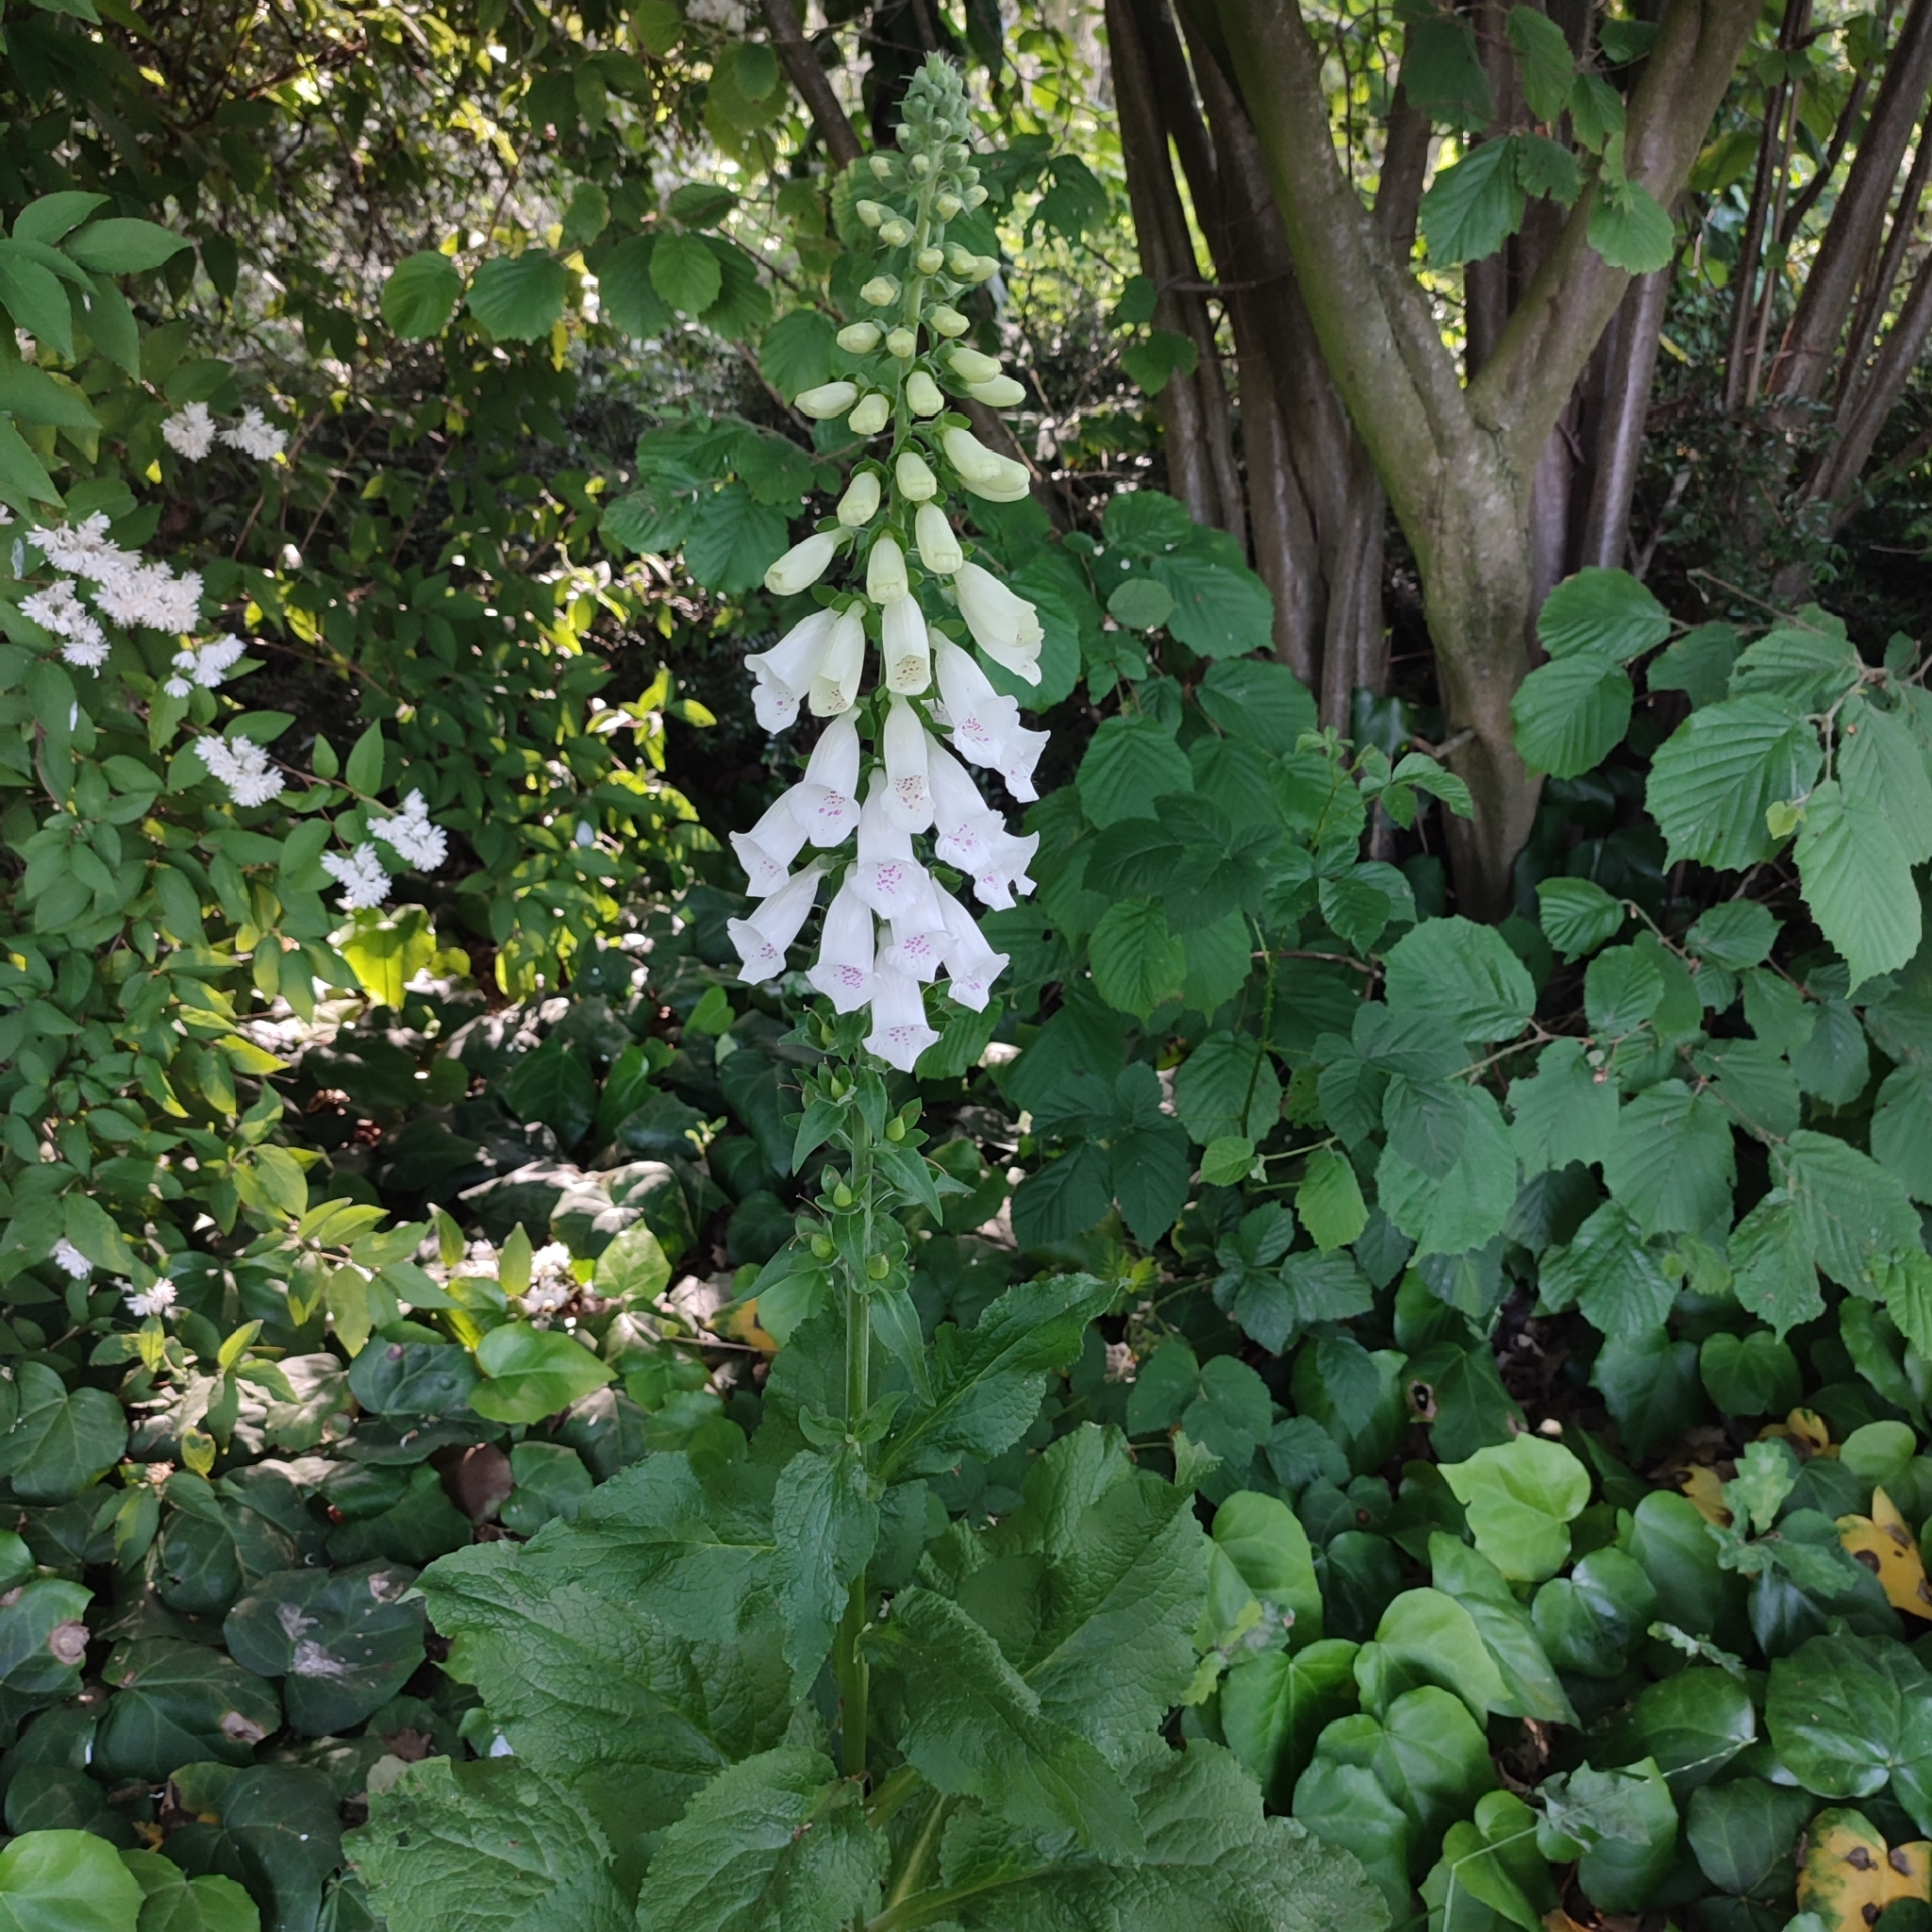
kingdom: Plantae
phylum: Tracheophyta
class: Magnoliopsida
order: Lamiales
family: Plantaginaceae
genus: Digitalis
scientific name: Digitalis purpurea
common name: Foxglove
